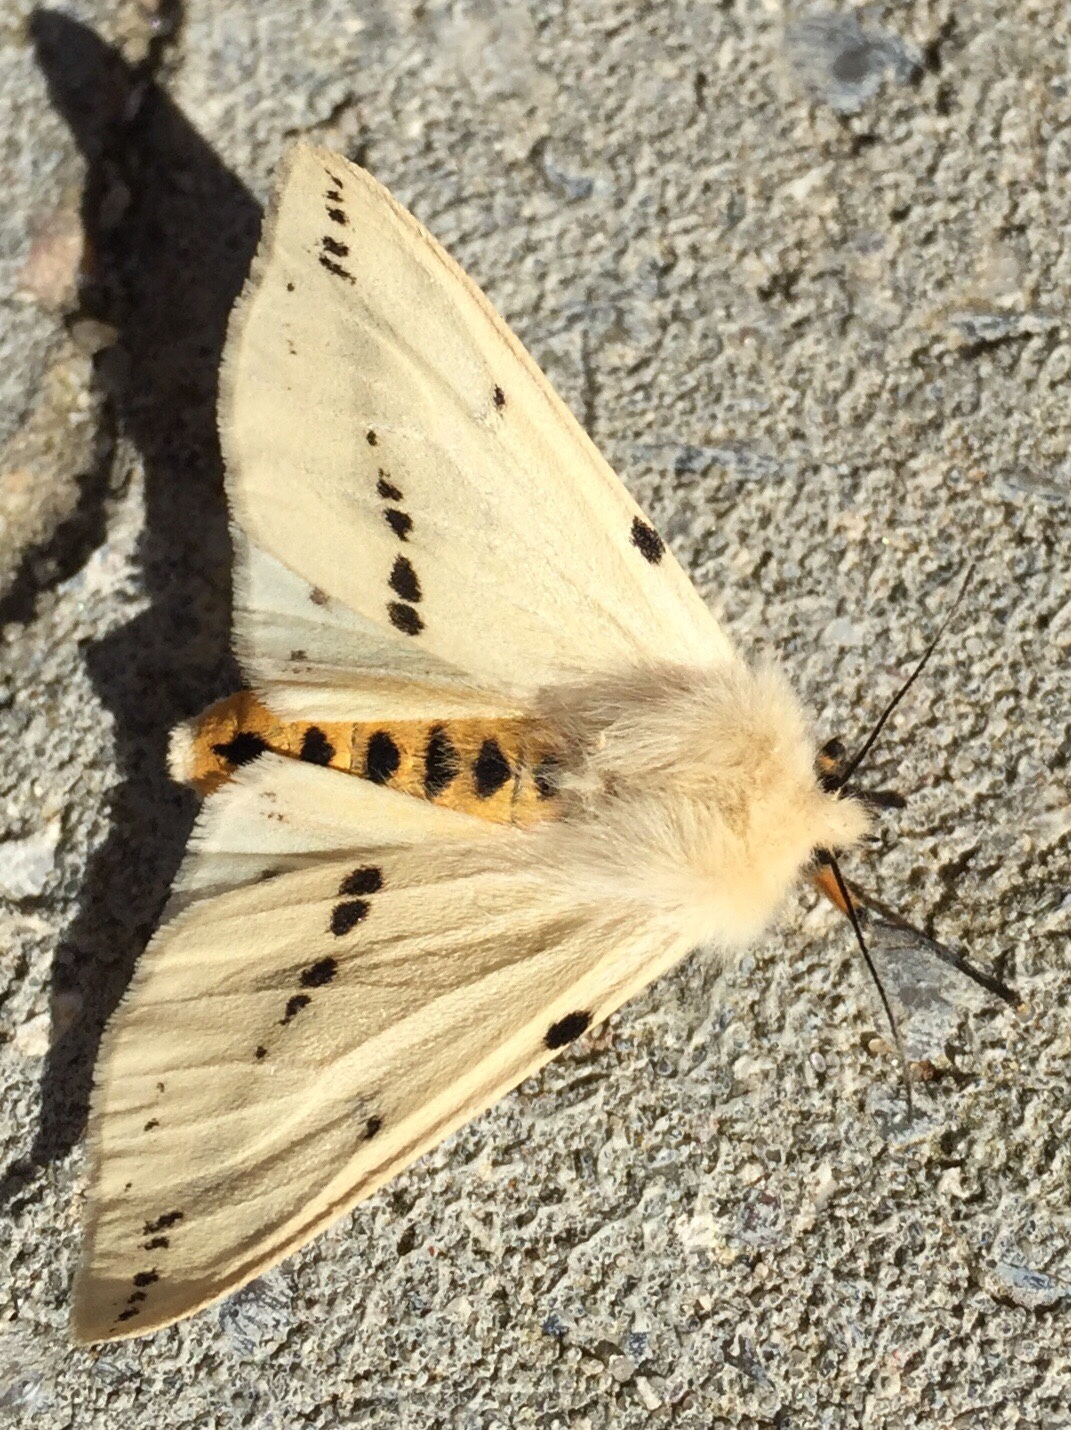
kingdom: Animalia
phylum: Arthropoda
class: Insecta
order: Lepidoptera
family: Erebidae
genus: Spilarctia
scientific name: Spilarctia lutea
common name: Buff ermine
